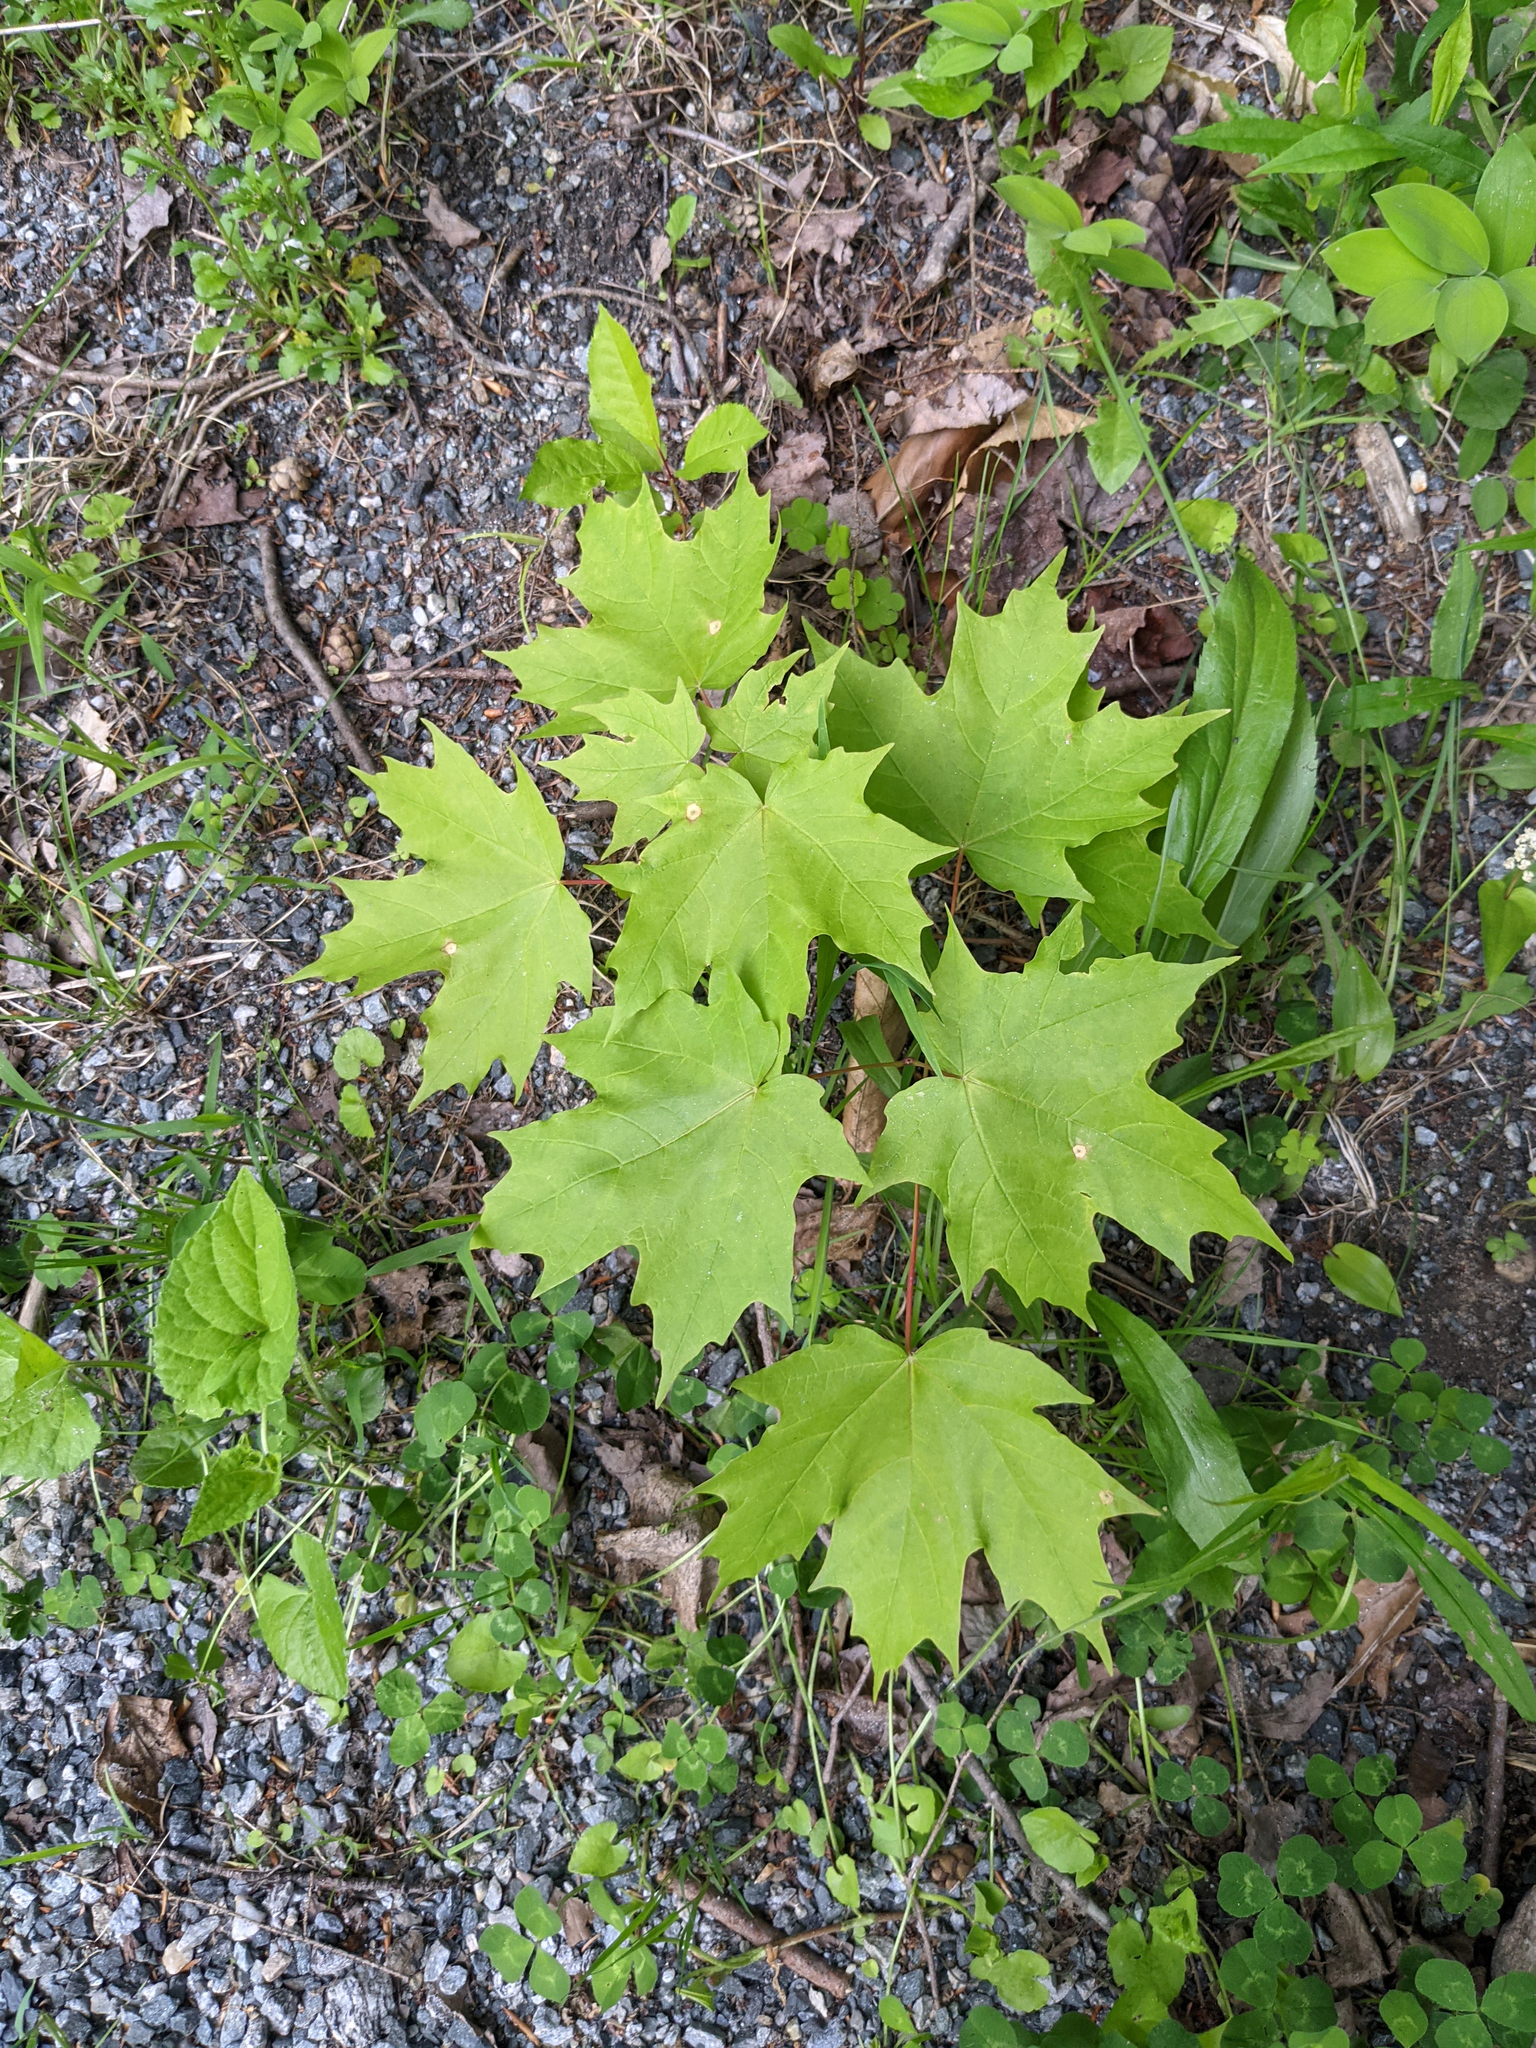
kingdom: Plantae
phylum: Tracheophyta
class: Magnoliopsida
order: Sapindales
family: Sapindaceae
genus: Acer
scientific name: Acer saccharum
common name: Sugar maple
